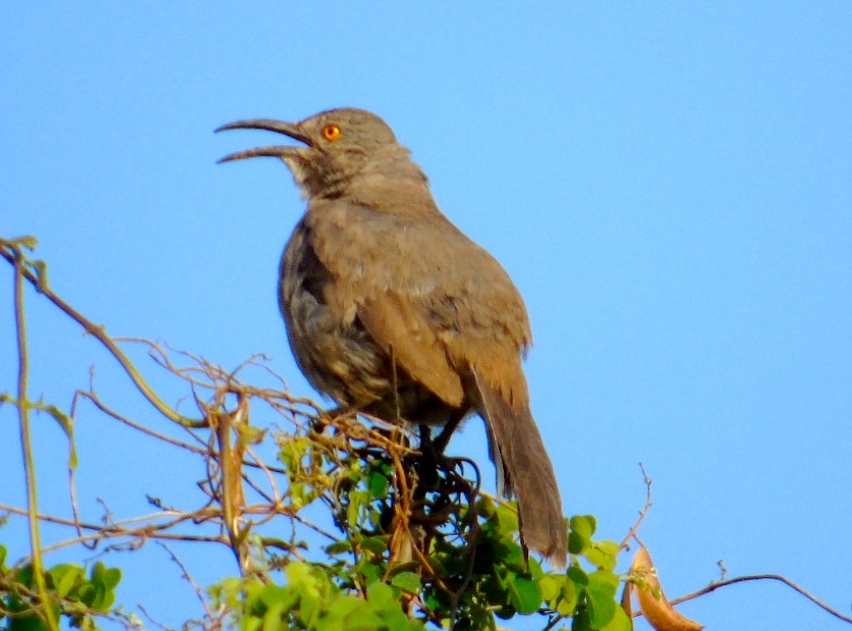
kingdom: Animalia
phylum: Chordata
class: Aves
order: Passeriformes
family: Mimidae
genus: Toxostoma
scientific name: Toxostoma curvirostre
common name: Curve-billed thrasher
